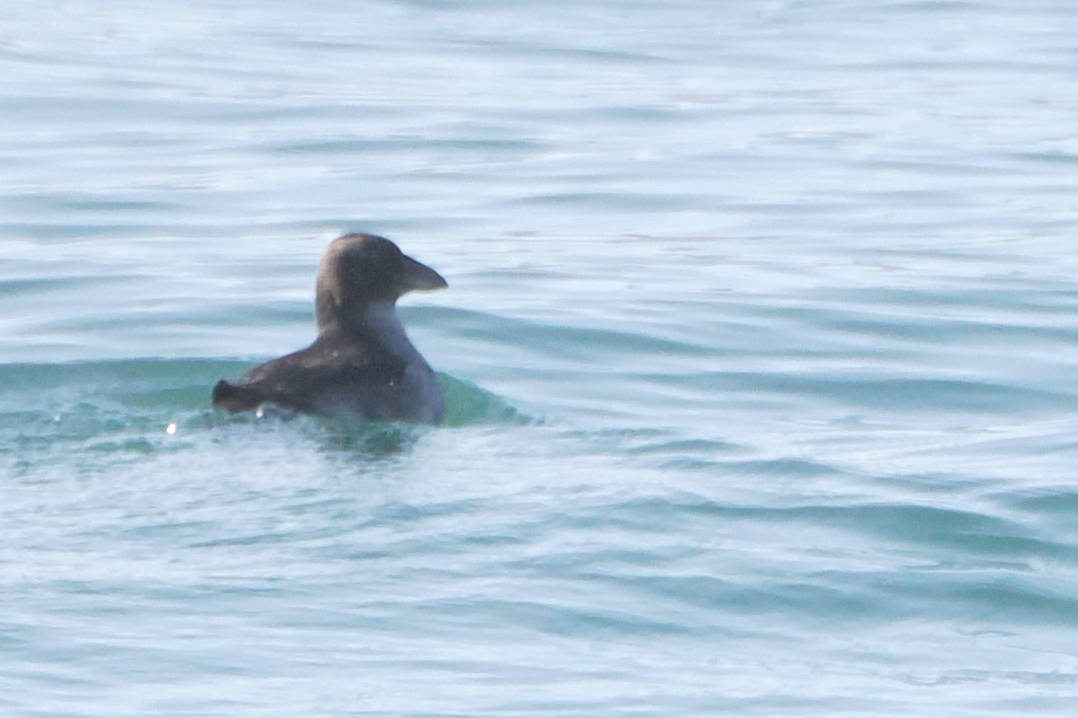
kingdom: Animalia
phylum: Chordata
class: Aves
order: Charadriiformes
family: Alcidae
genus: Fratercula
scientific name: Fratercula cirrhata
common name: Tufted puffin
